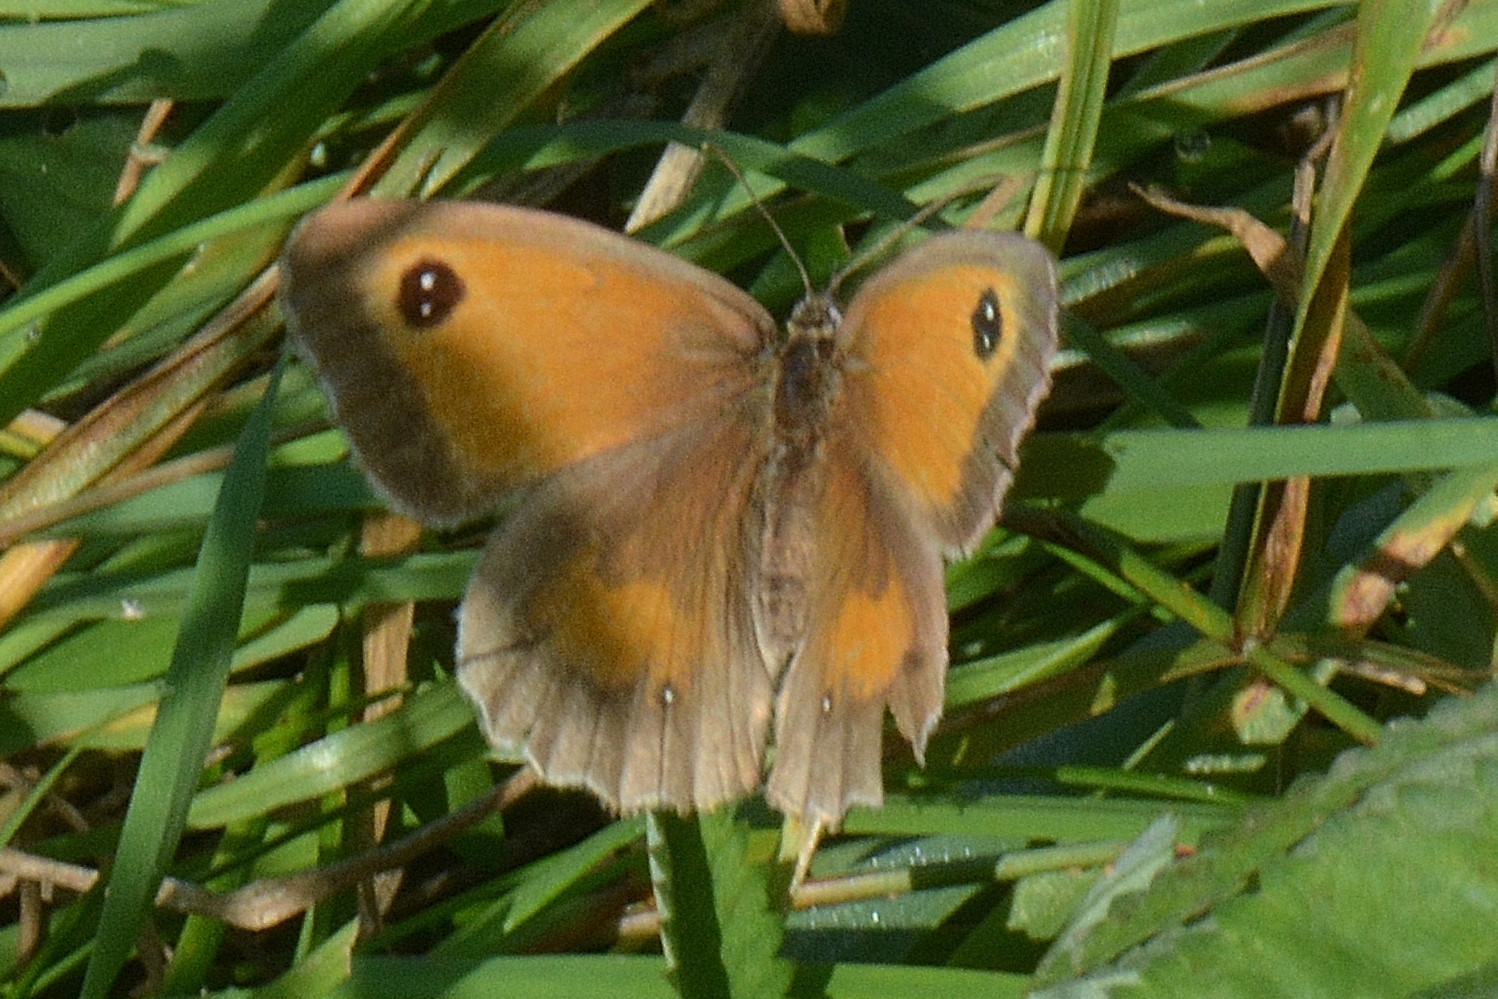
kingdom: Animalia
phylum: Arthropoda
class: Insecta
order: Lepidoptera
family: Nymphalidae
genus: Pyronia
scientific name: Pyronia tithonus
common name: Gatekeeper
